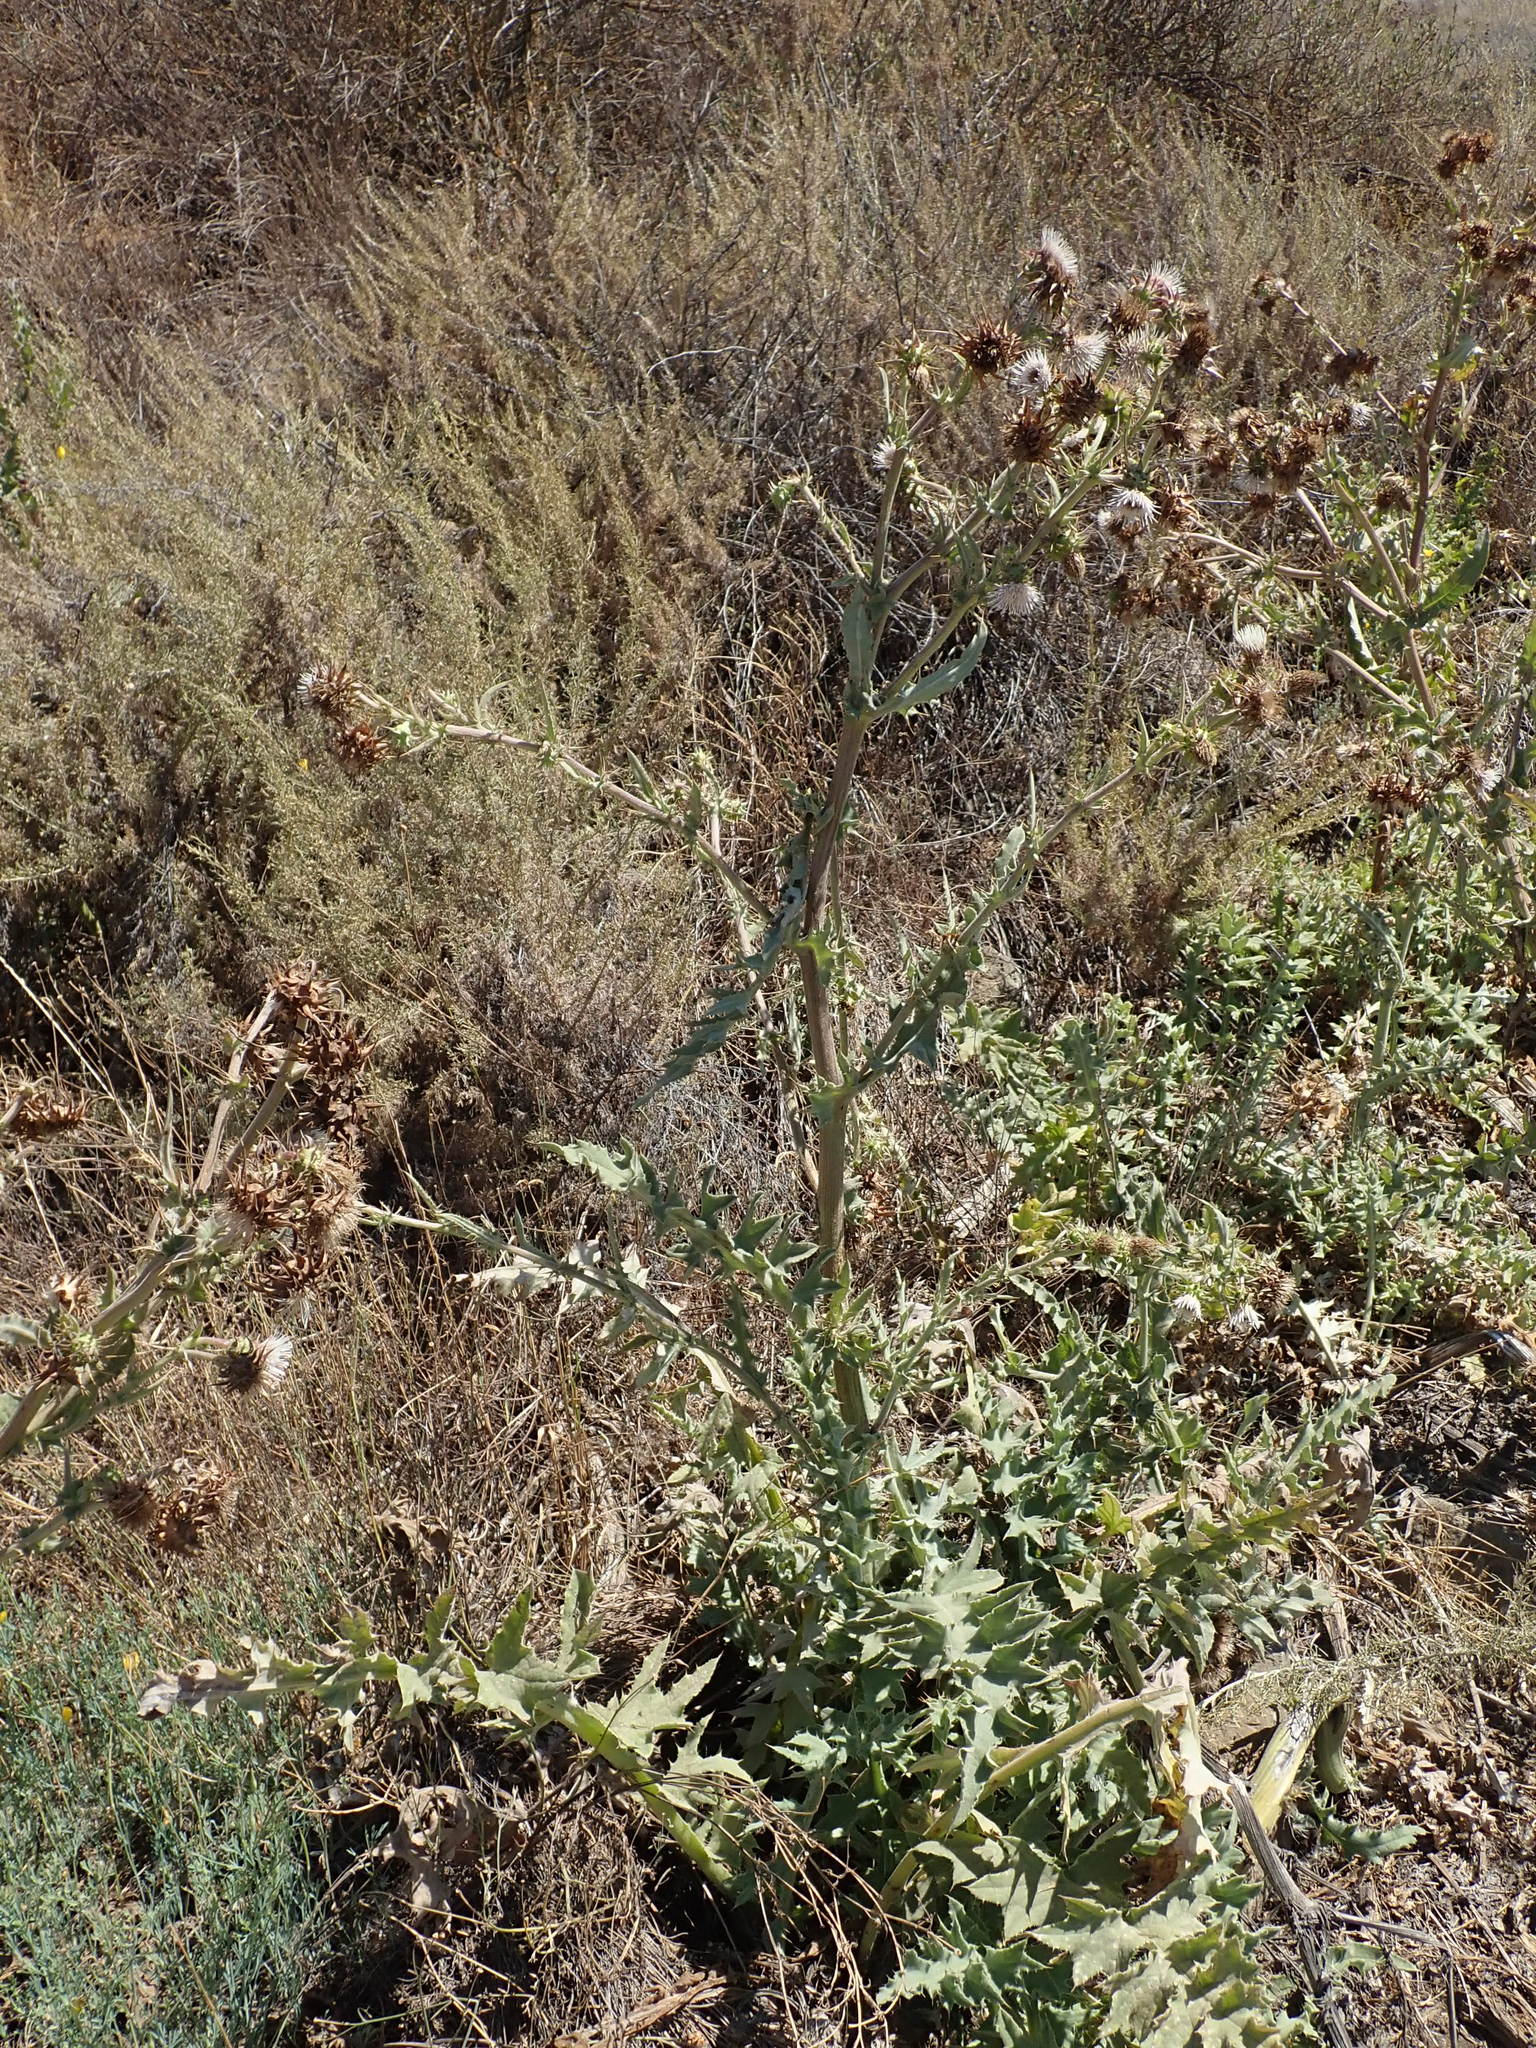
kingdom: Plantae
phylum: Tracheophyta
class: Magnoliopsida
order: Asterales
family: Asteraceae
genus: Cirsium
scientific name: Cirsium fontinale
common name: Fountain thistle
